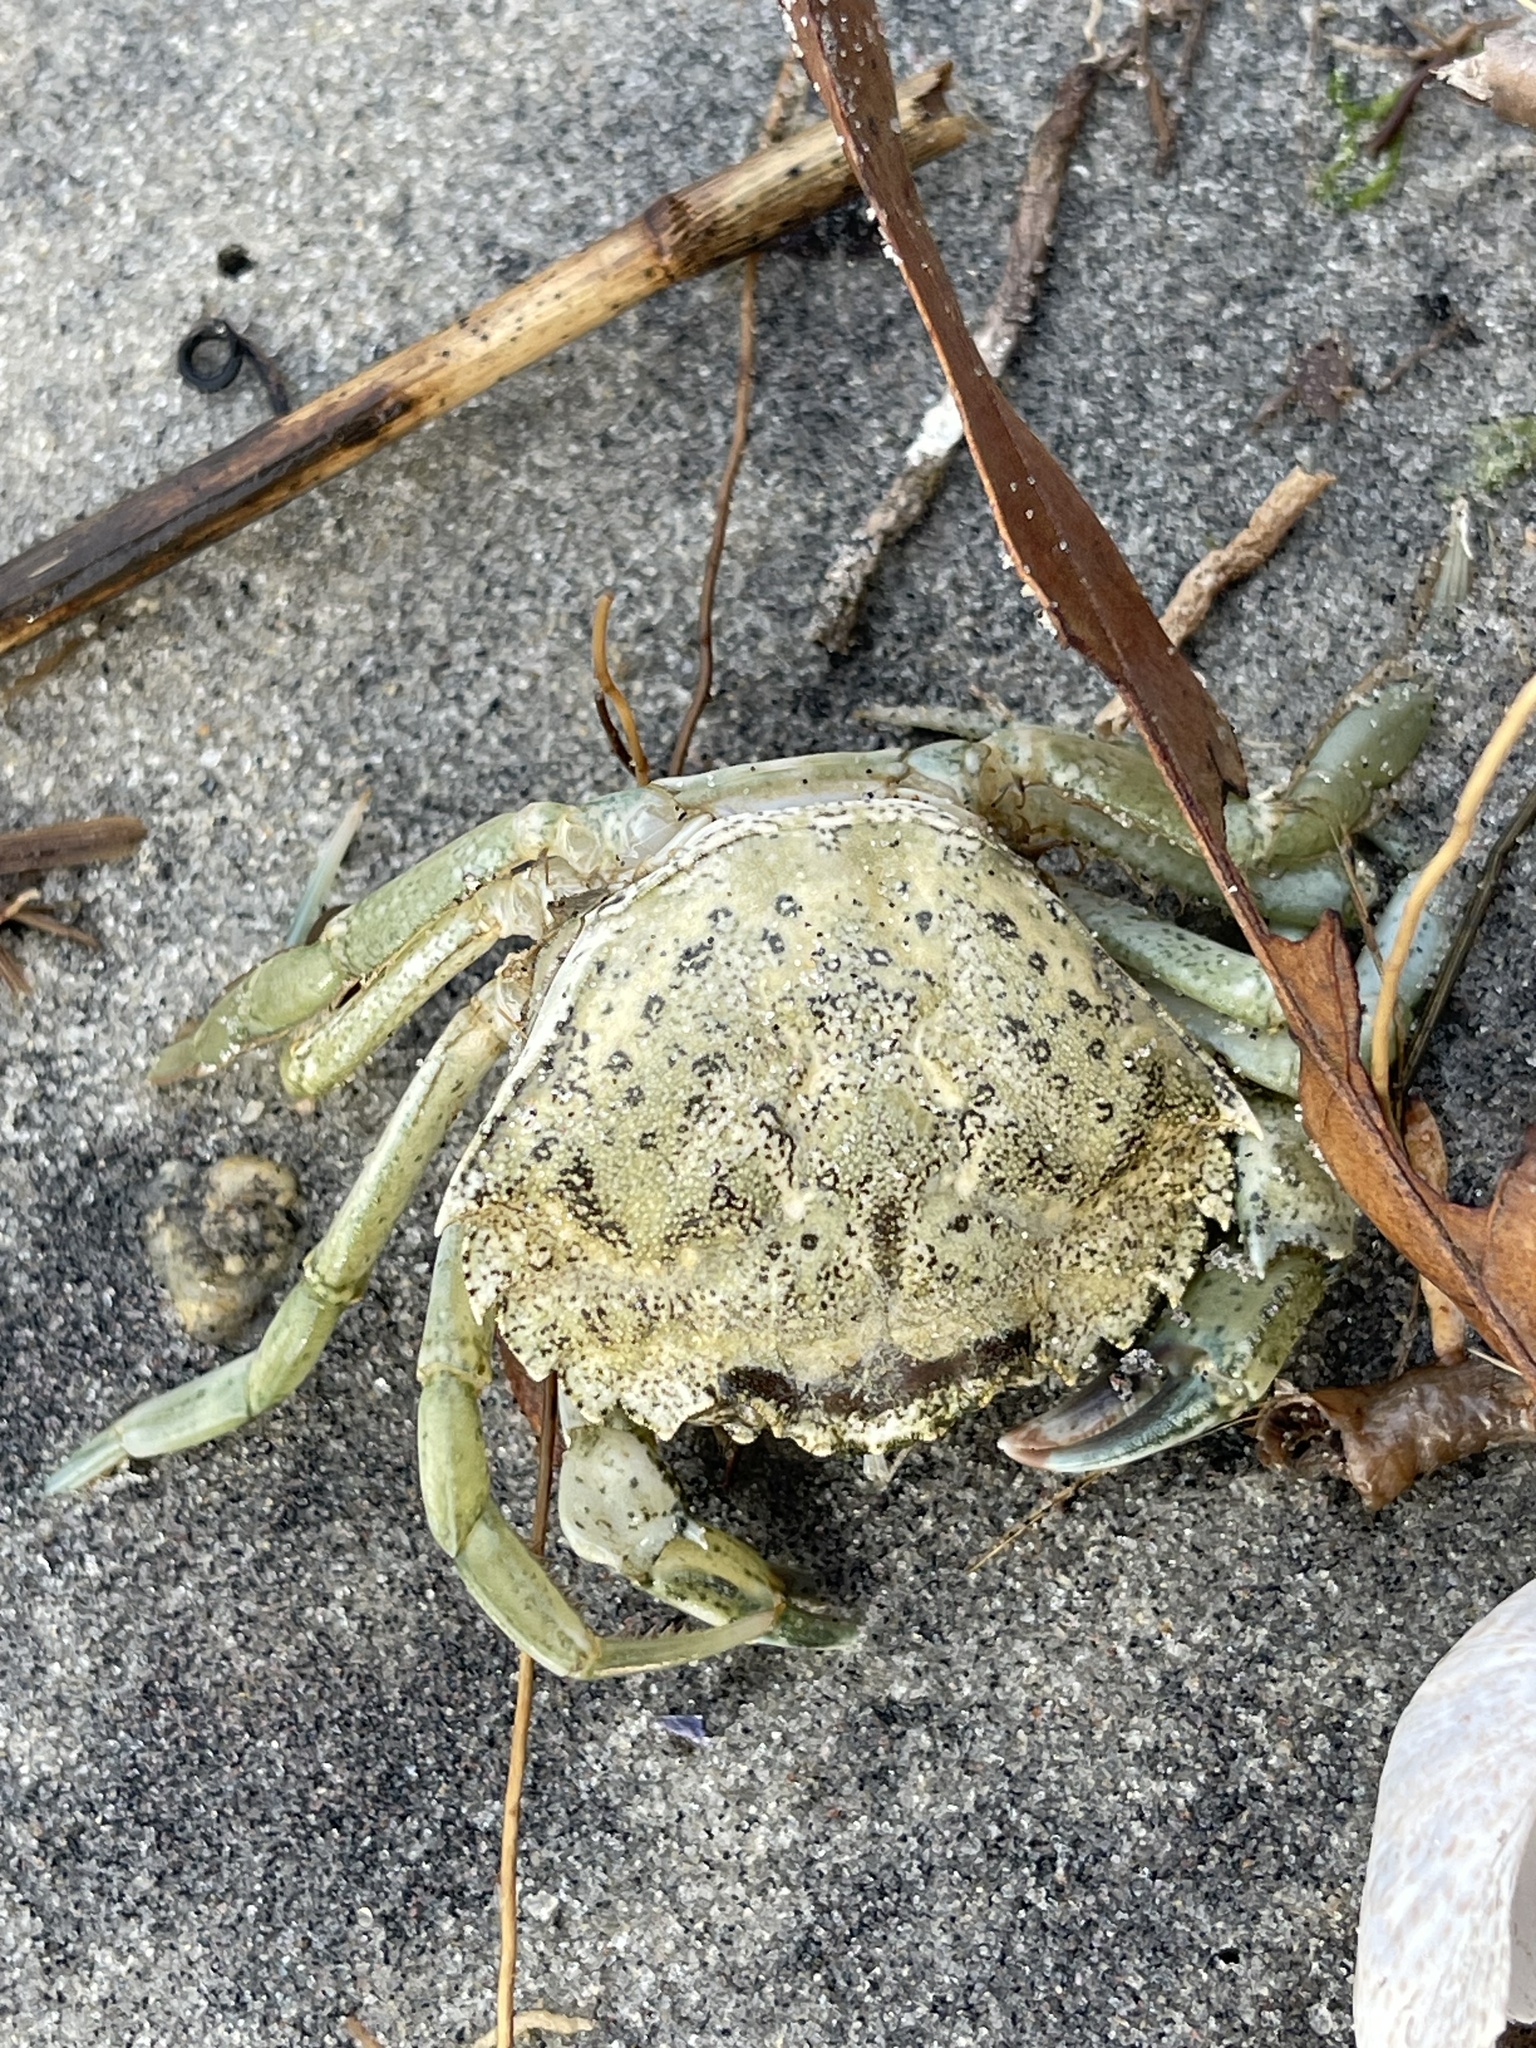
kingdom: Animalia
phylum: Arthropoda
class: Malacostraca
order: Decapoda
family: Carcinidae
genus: Carcinus
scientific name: Carcinus maenas
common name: European green crab
